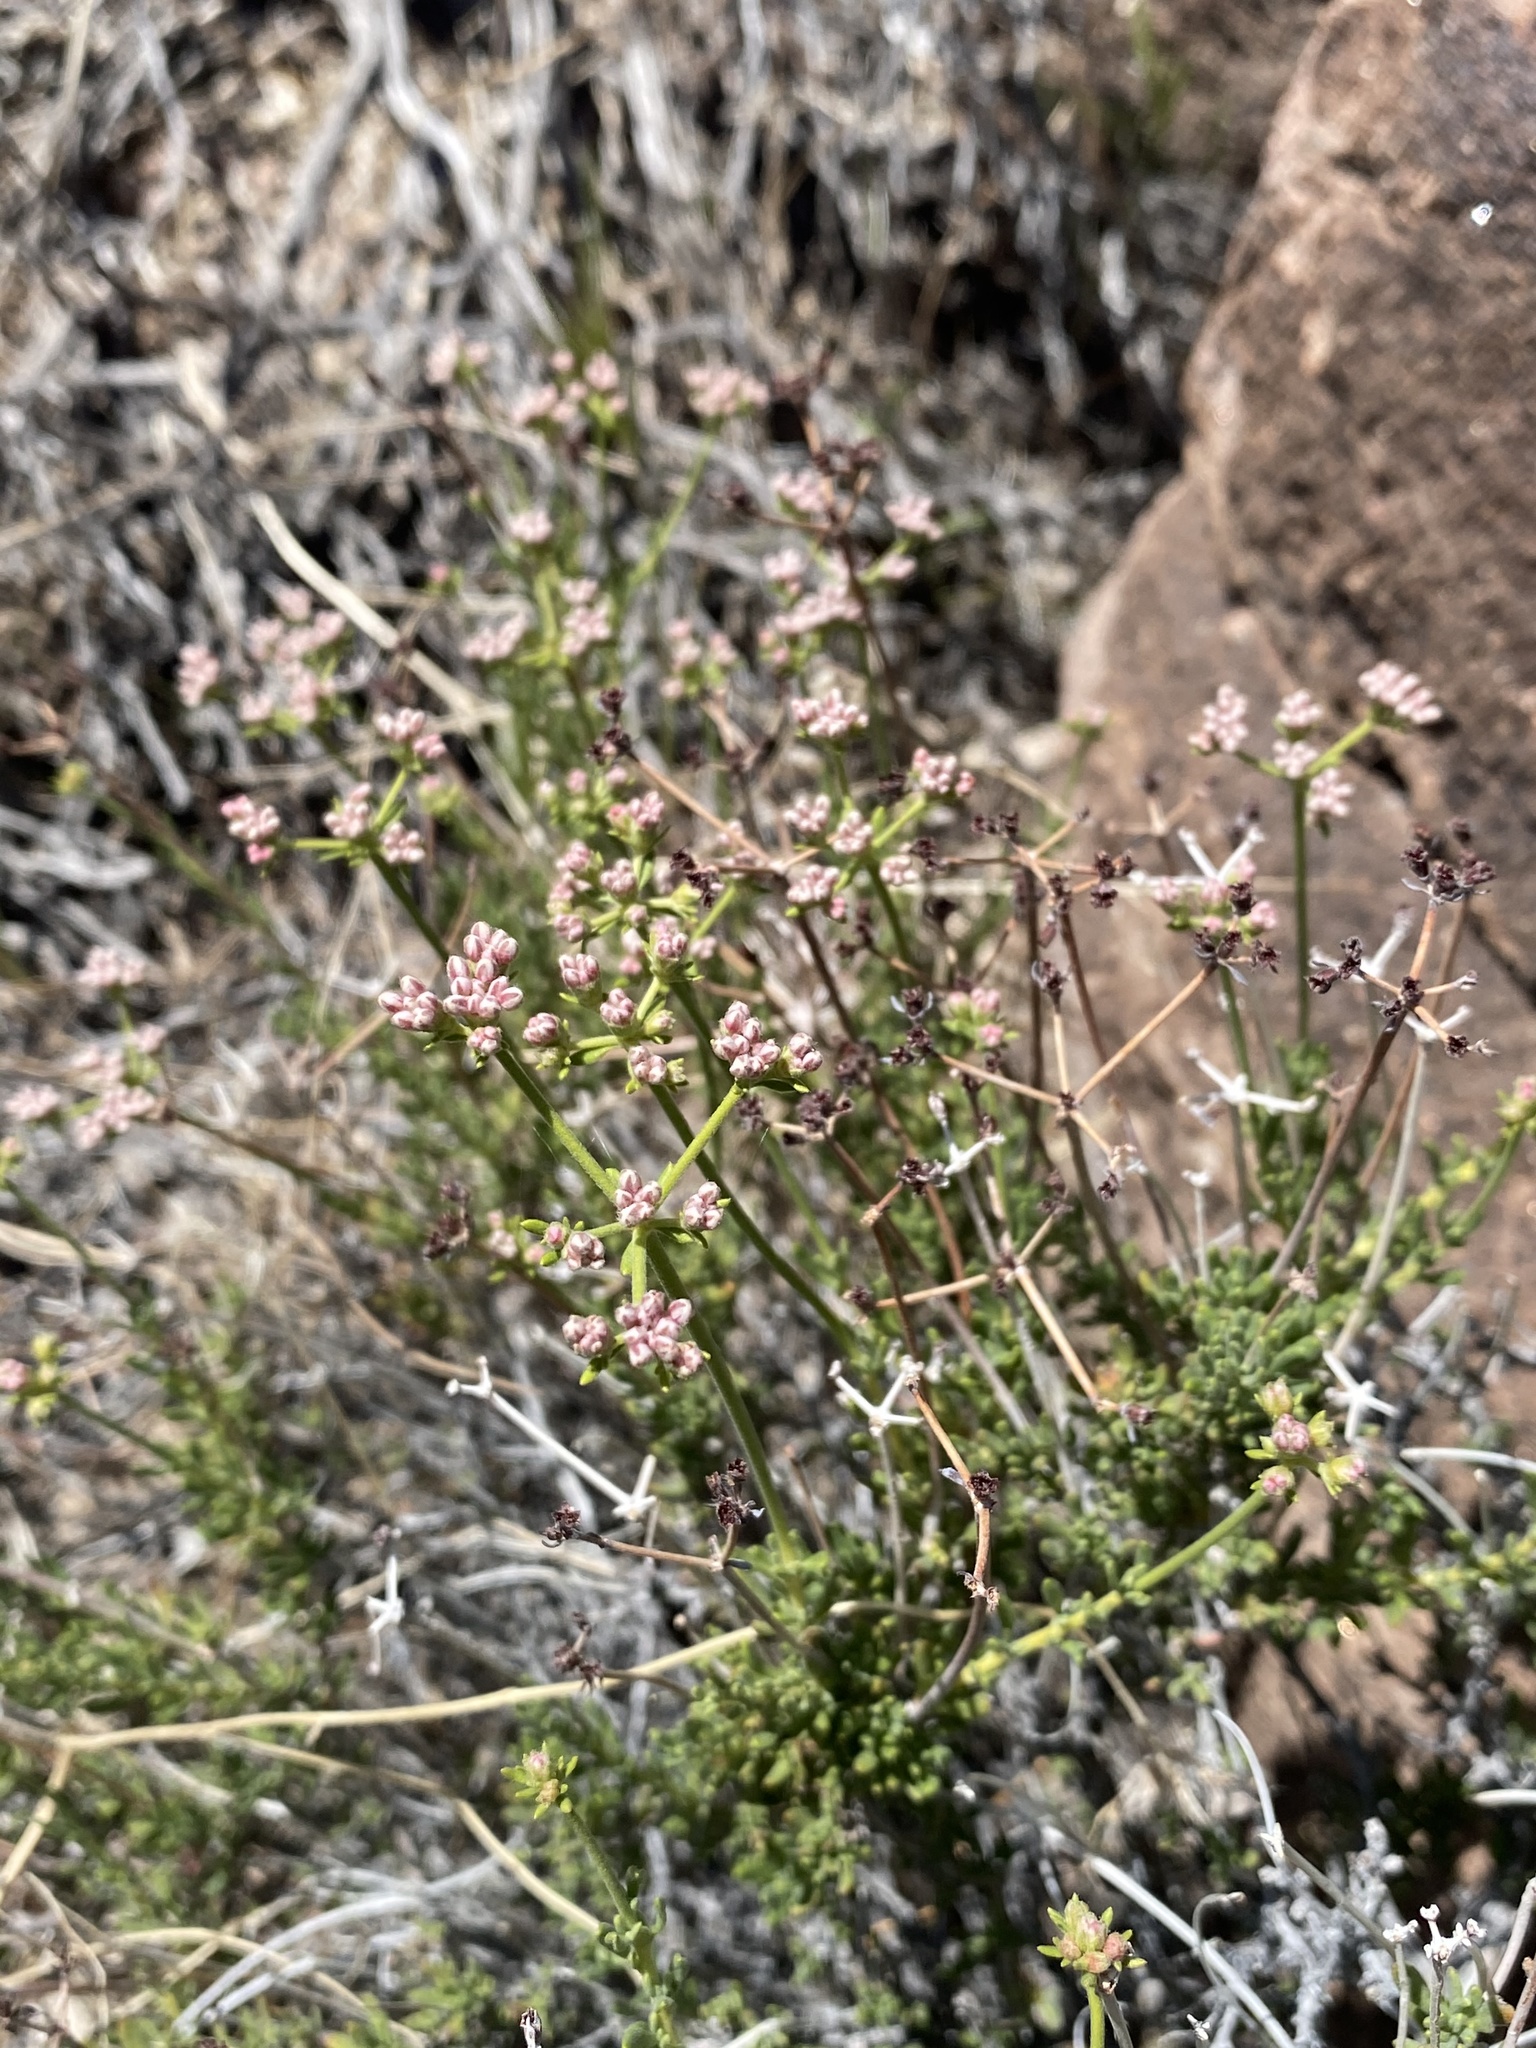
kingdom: Plantae
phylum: Tracheophyta
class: Magnoliopsida
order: Caryophyllales
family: Polygonaceae
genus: Eriogonum
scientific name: Eriogonum fasciculatum
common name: California wild buckwheat
